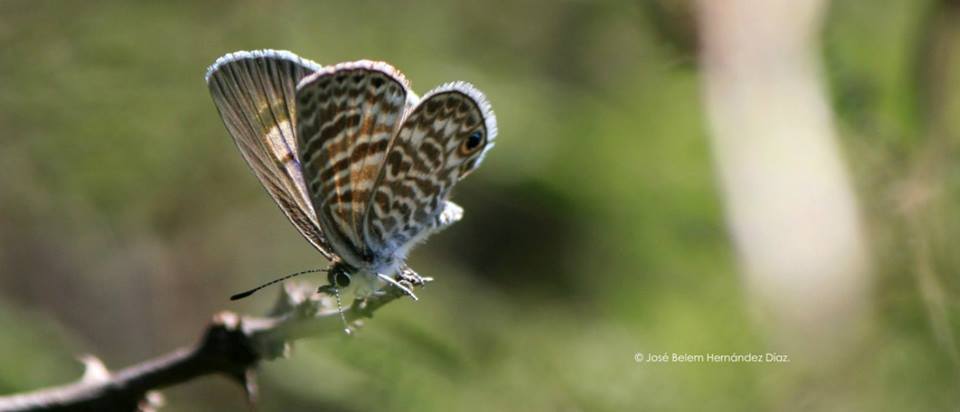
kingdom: Animalia
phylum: Arthropoda
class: Insecta
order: Lepidoptera
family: Lycaenidae
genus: Leptotes
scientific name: Leptotes marina
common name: Marine blue
